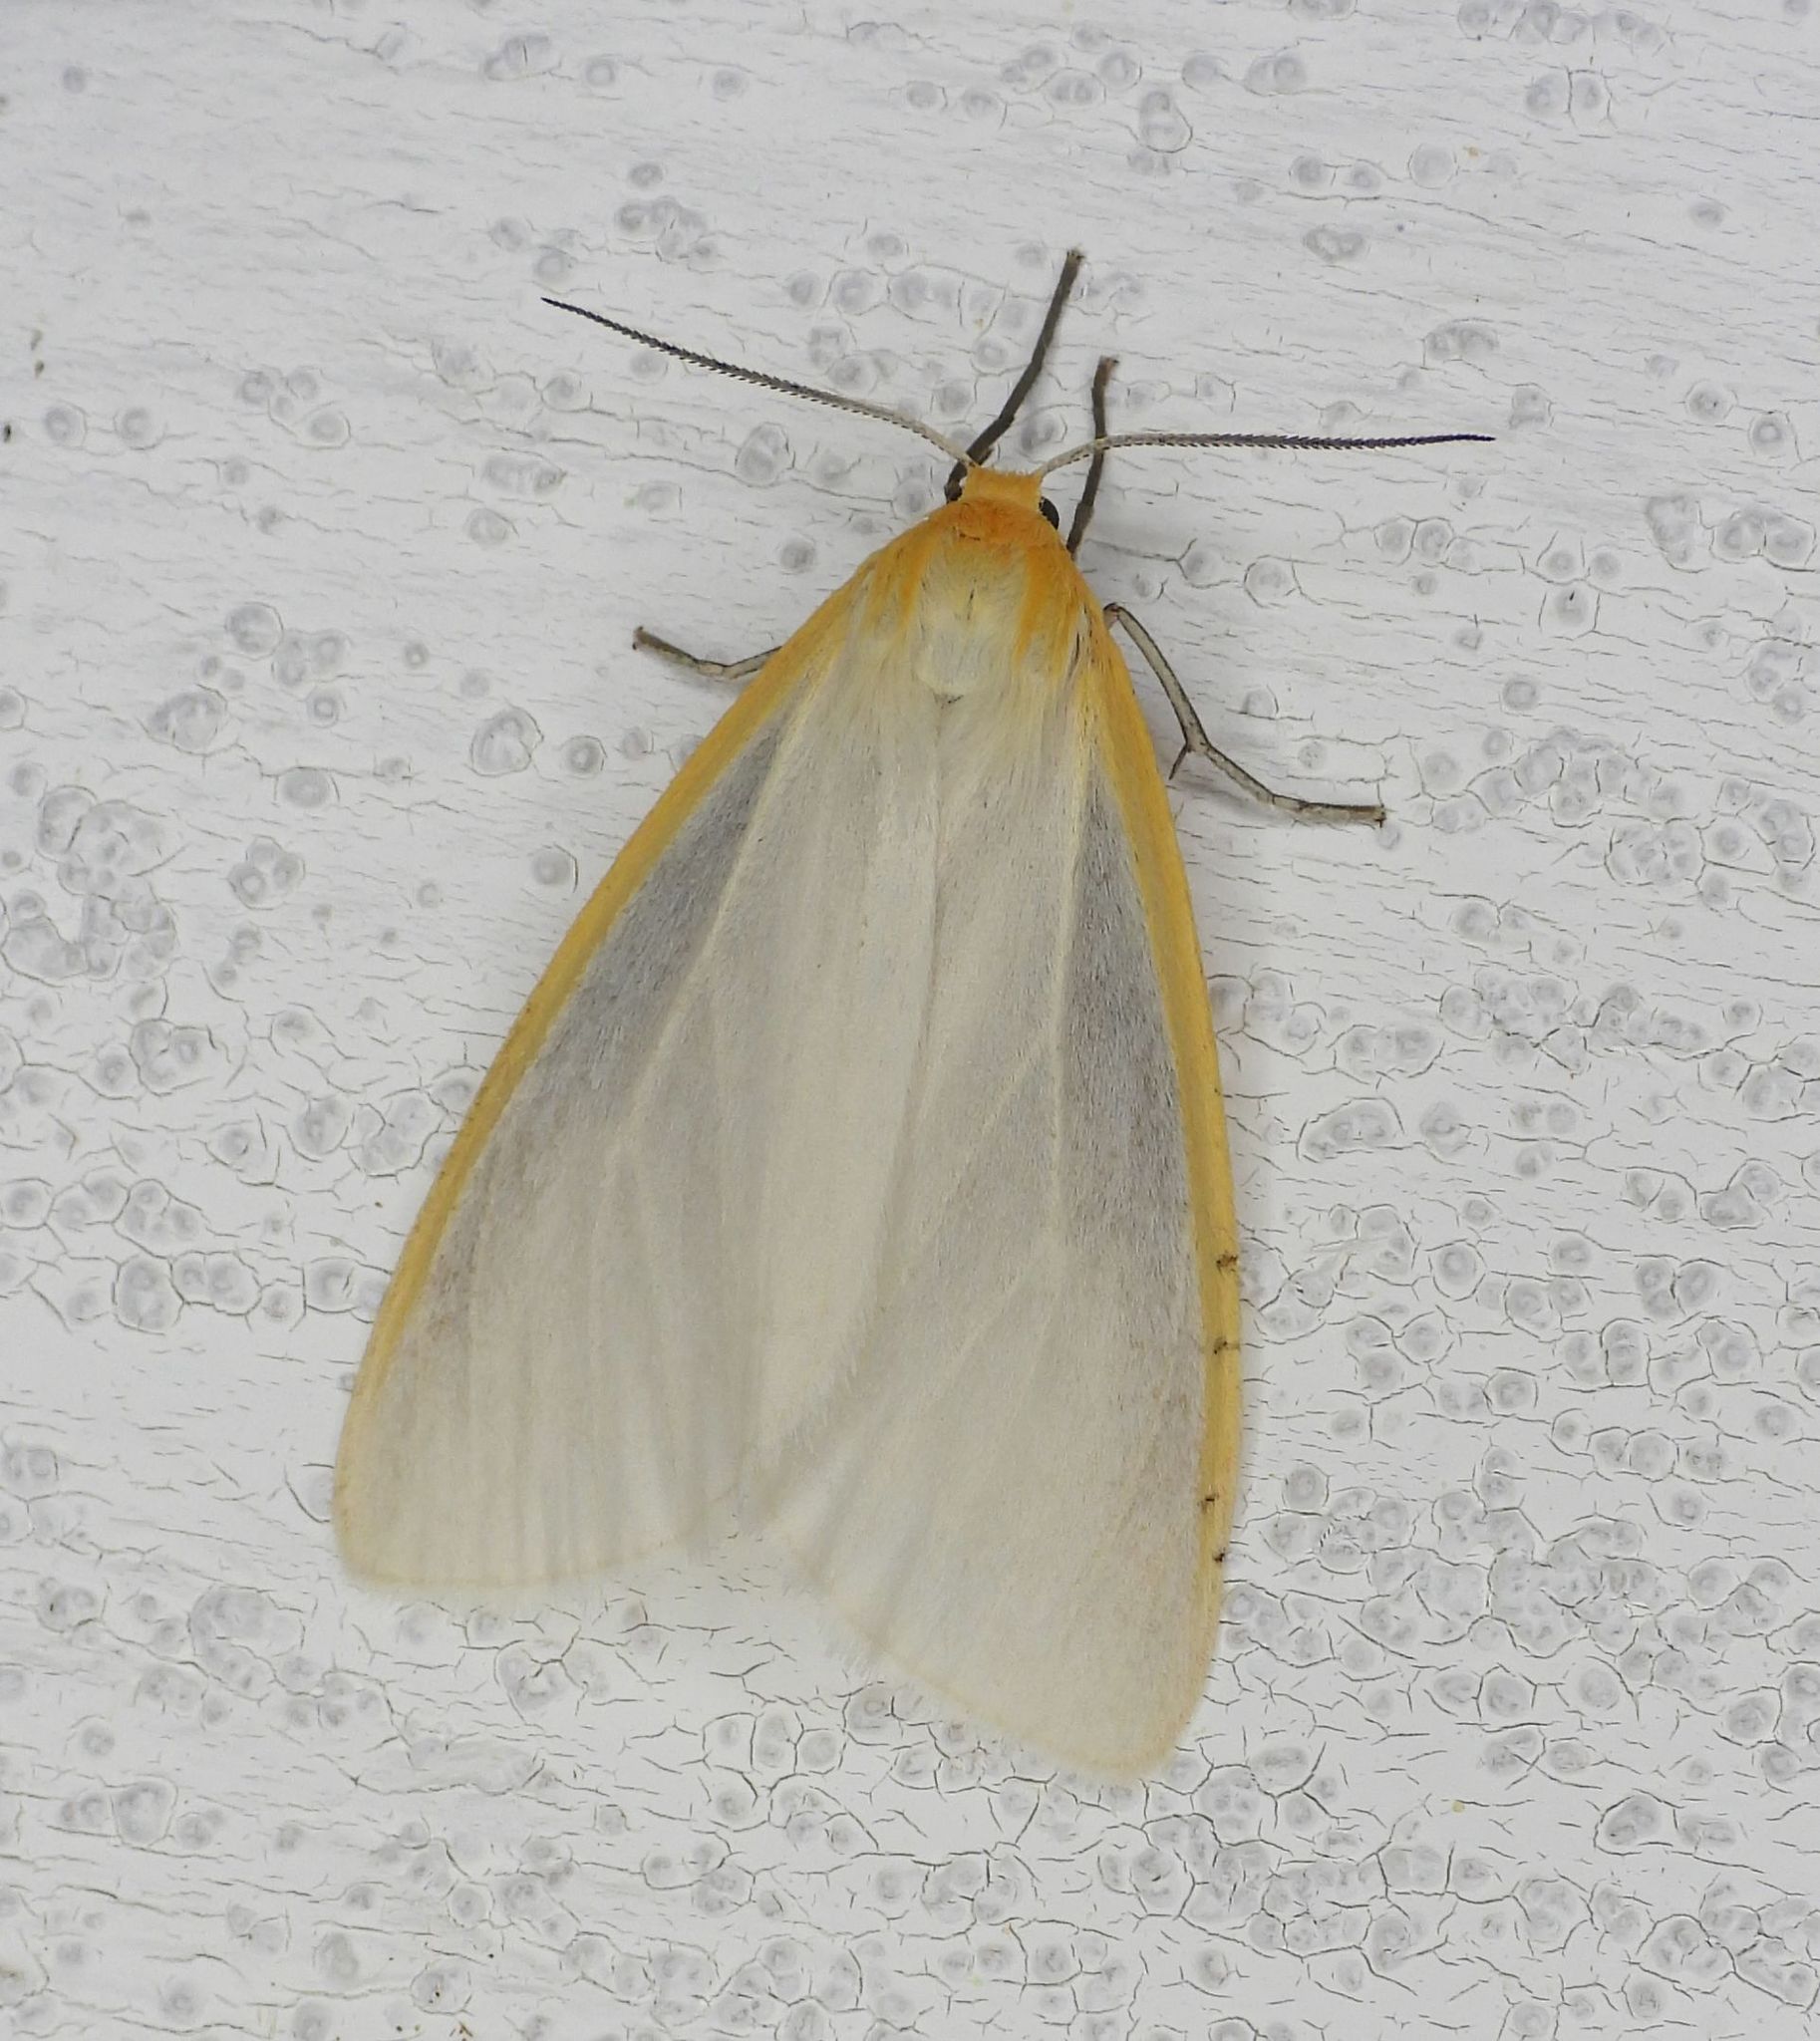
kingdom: Animalia
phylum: Arthropoda
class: Insecta
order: Lepidoptera
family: Erebidae
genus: Cycnia
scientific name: Cycnia tenera
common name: Delicate cycnia moth
